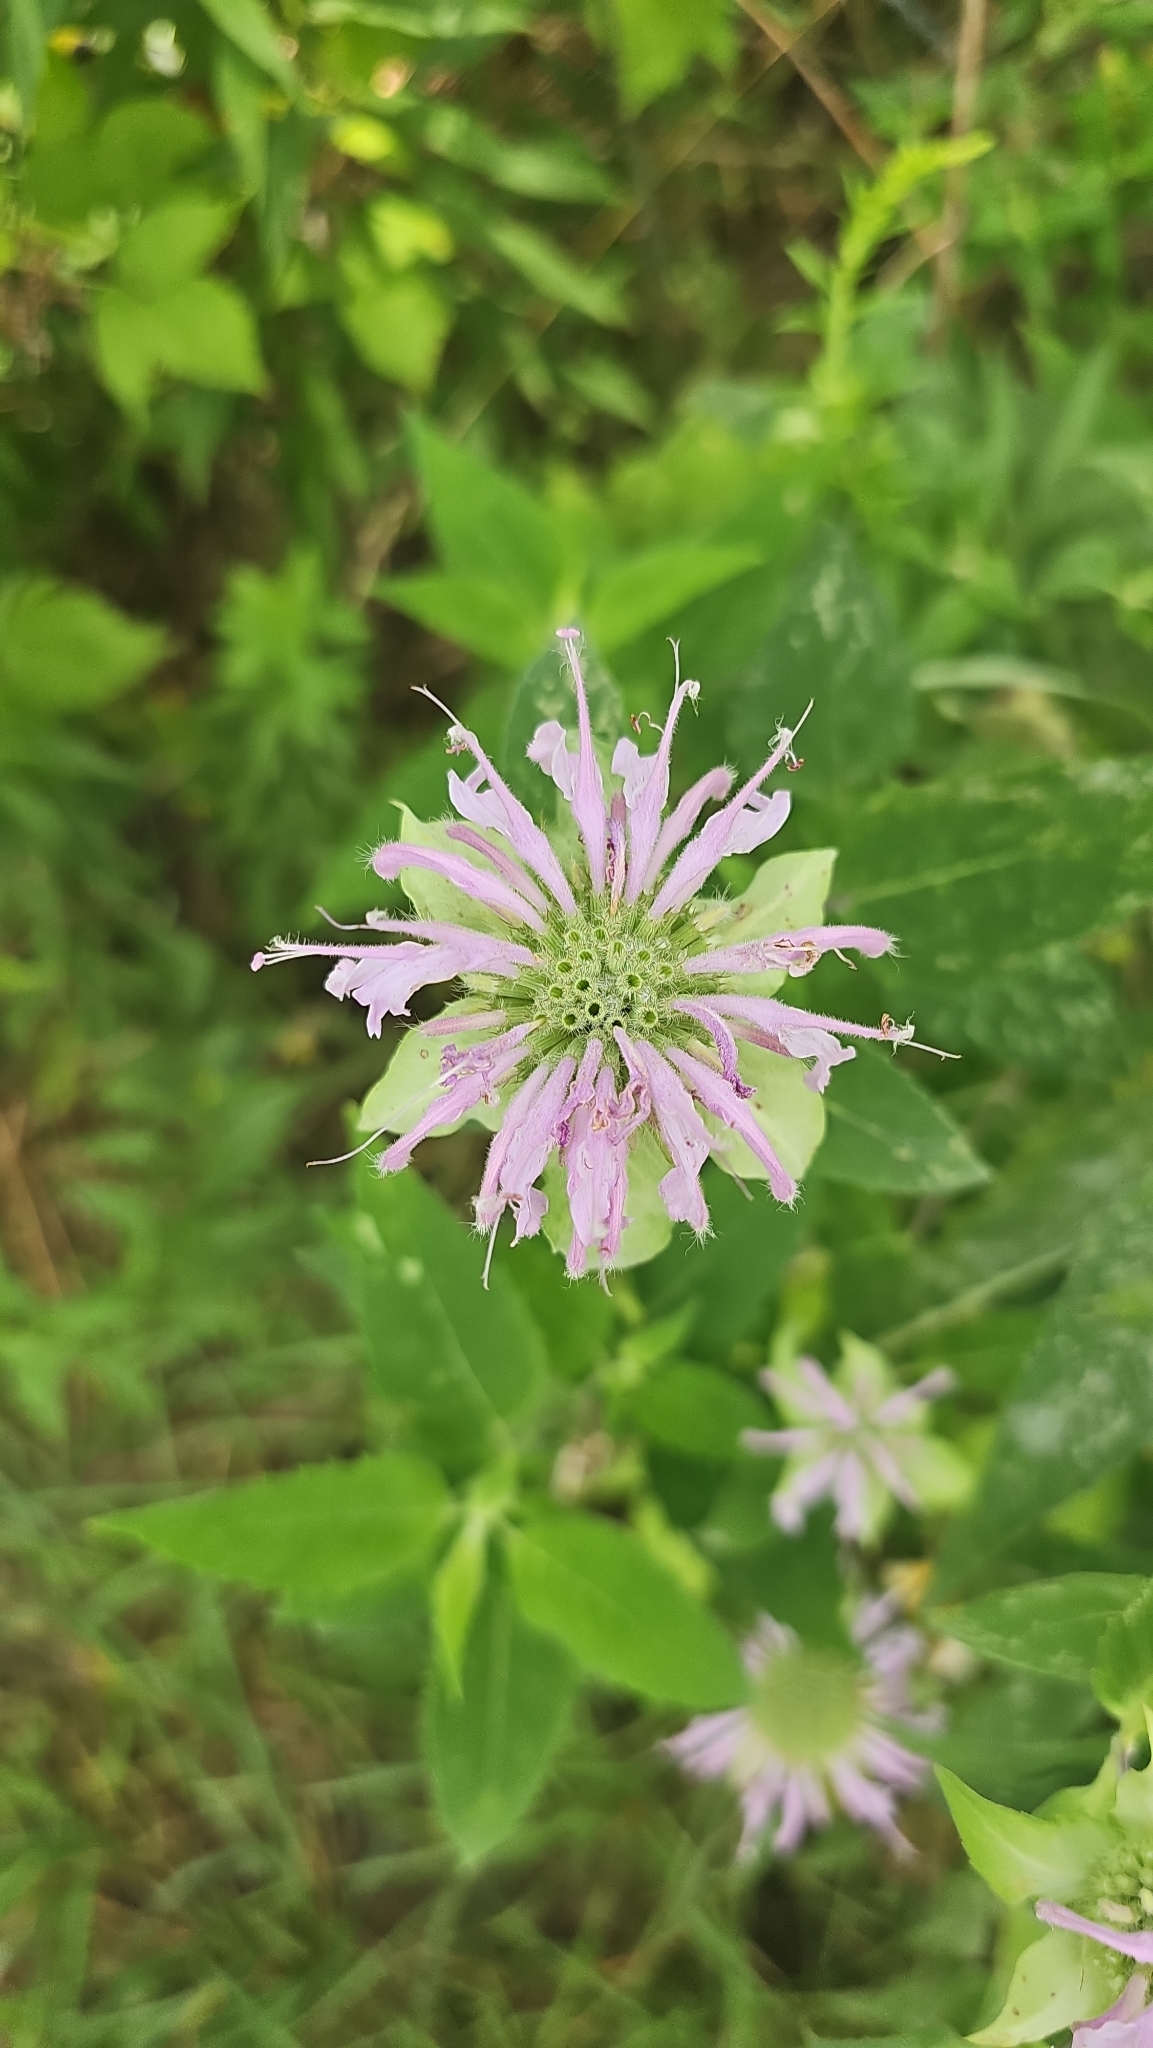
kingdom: Plantae
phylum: Tracheophyta
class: Magnoliopsida
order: Lamiales
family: Lamiaceae
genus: Monarda
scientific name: Monarda fistulosa
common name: Purple beebalm
